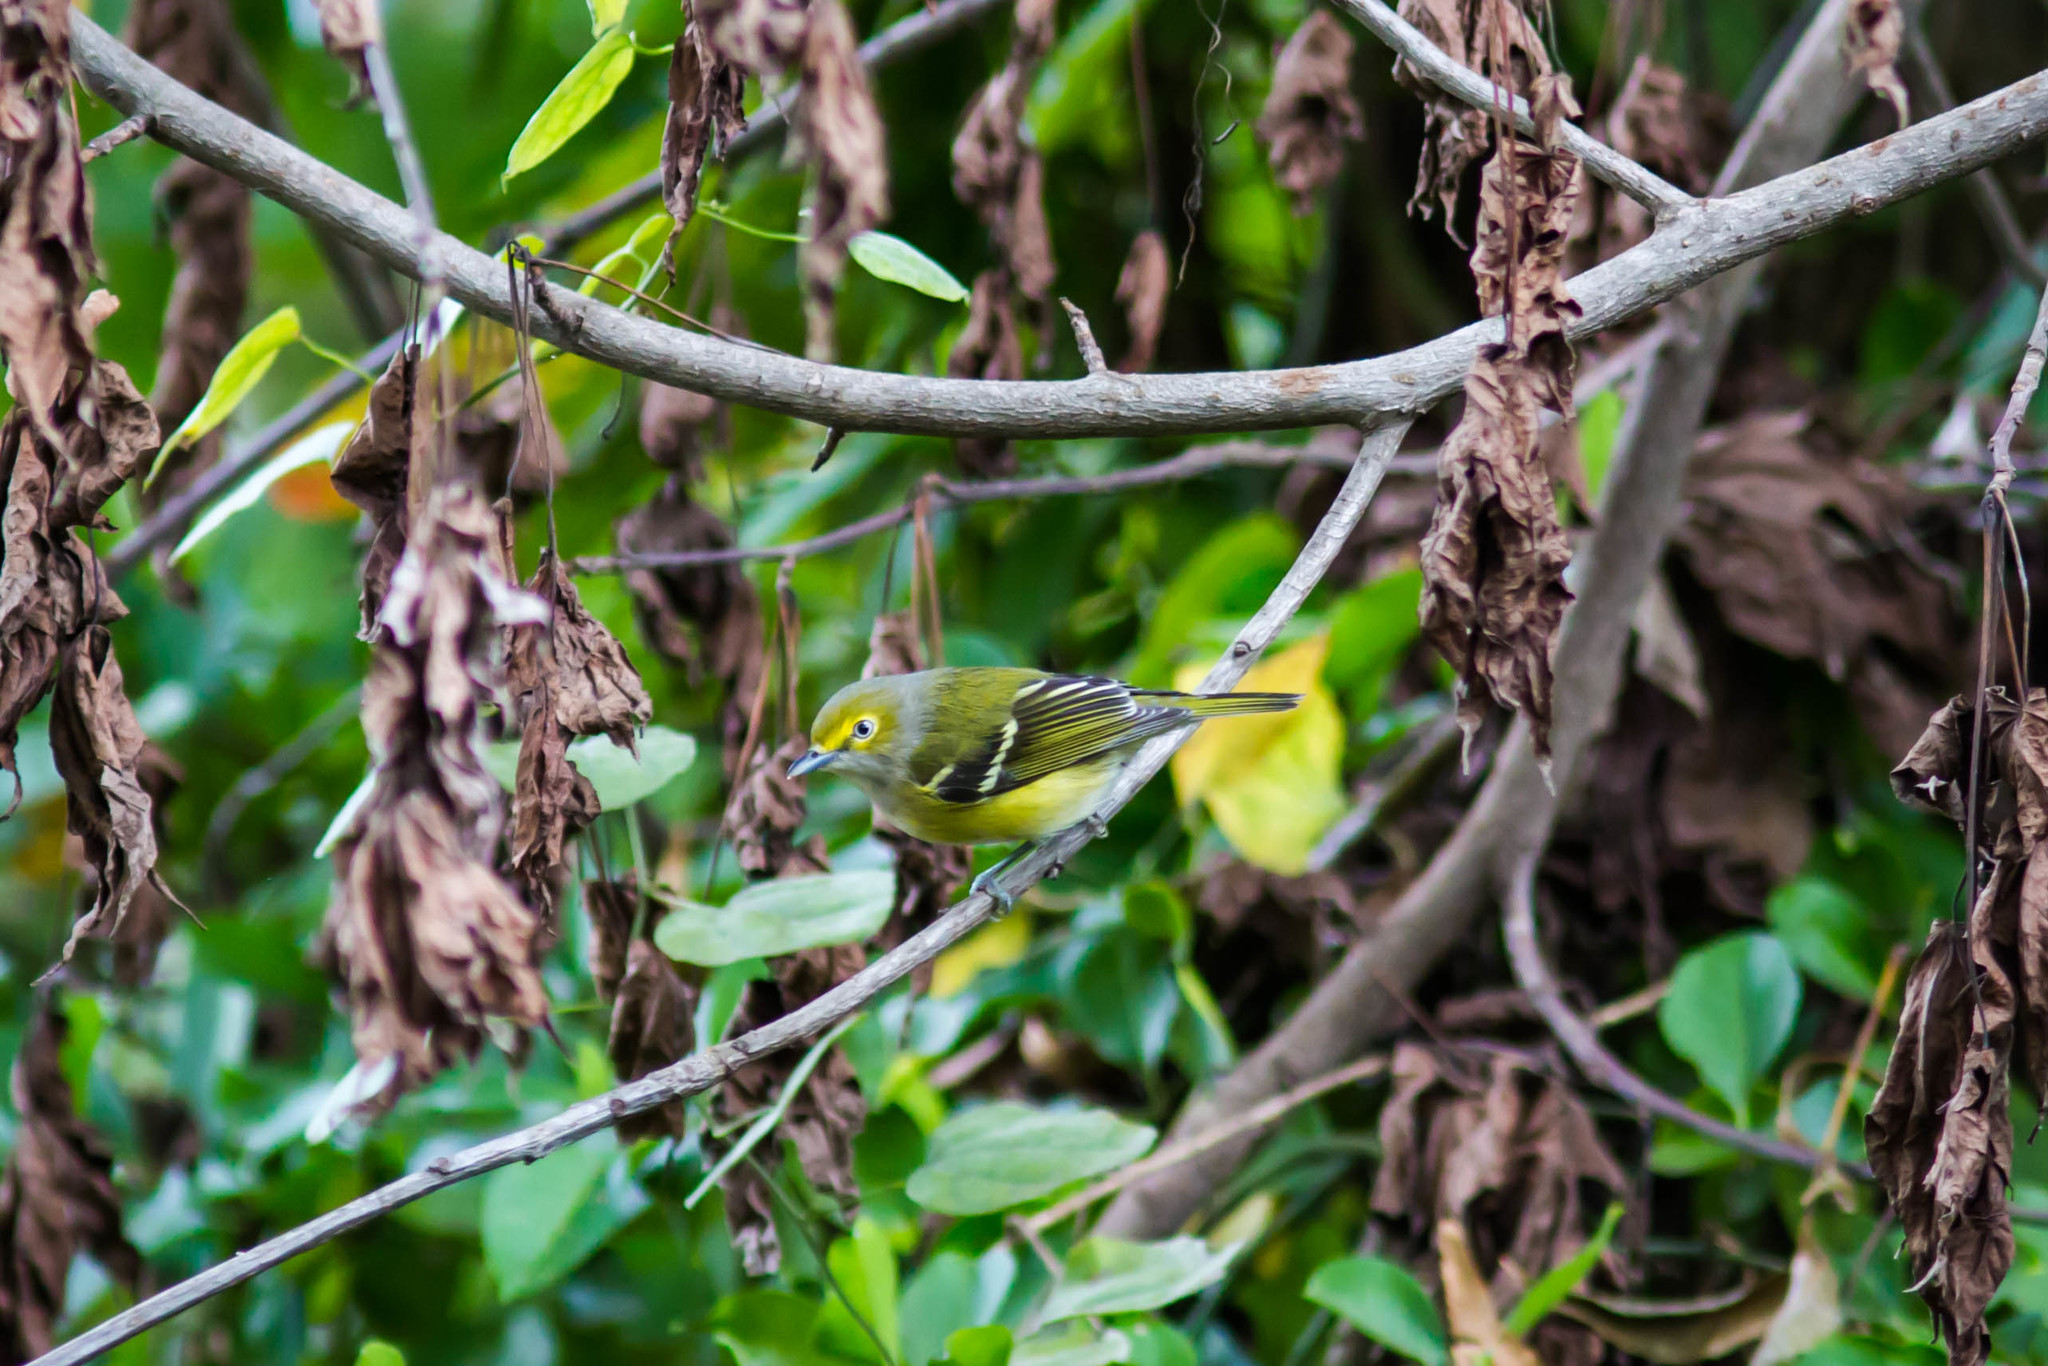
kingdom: Animalia
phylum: Chordata
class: Aves
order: Passeriformes
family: Vireonidae
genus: Vireo
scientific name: Vireo griseus
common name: White-eyed vireo
